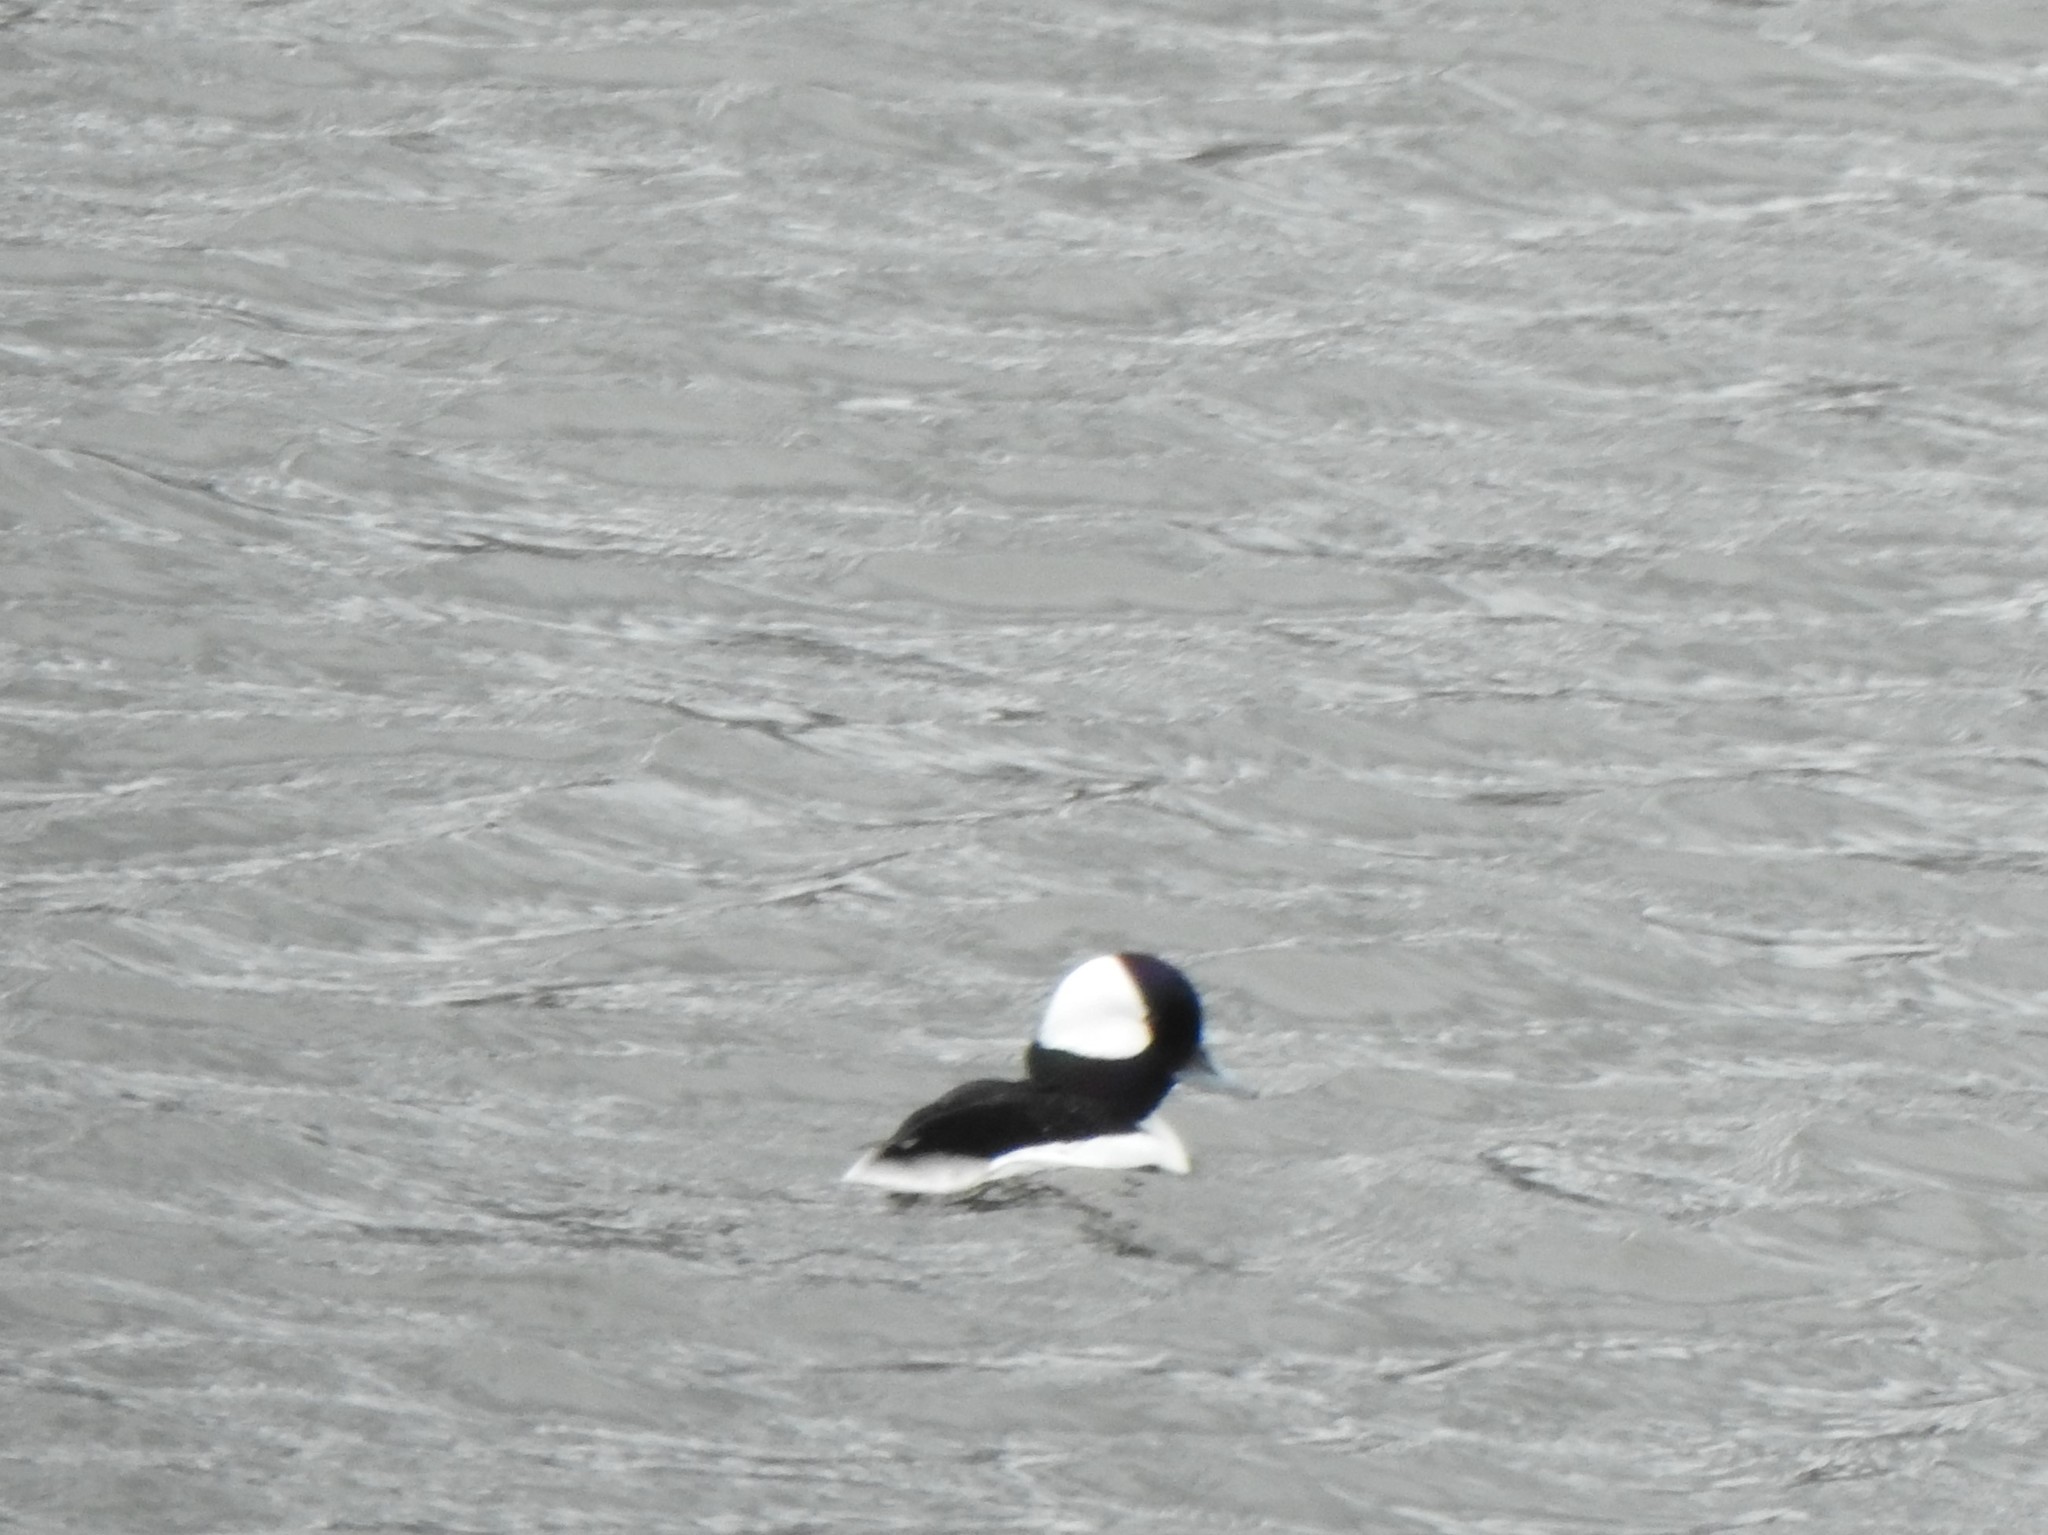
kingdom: Animalia
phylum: Chordata
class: Aves
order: Anseriformes
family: Anatidae
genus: Bucephala
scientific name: Bucephala albeola
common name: Bufflehead
